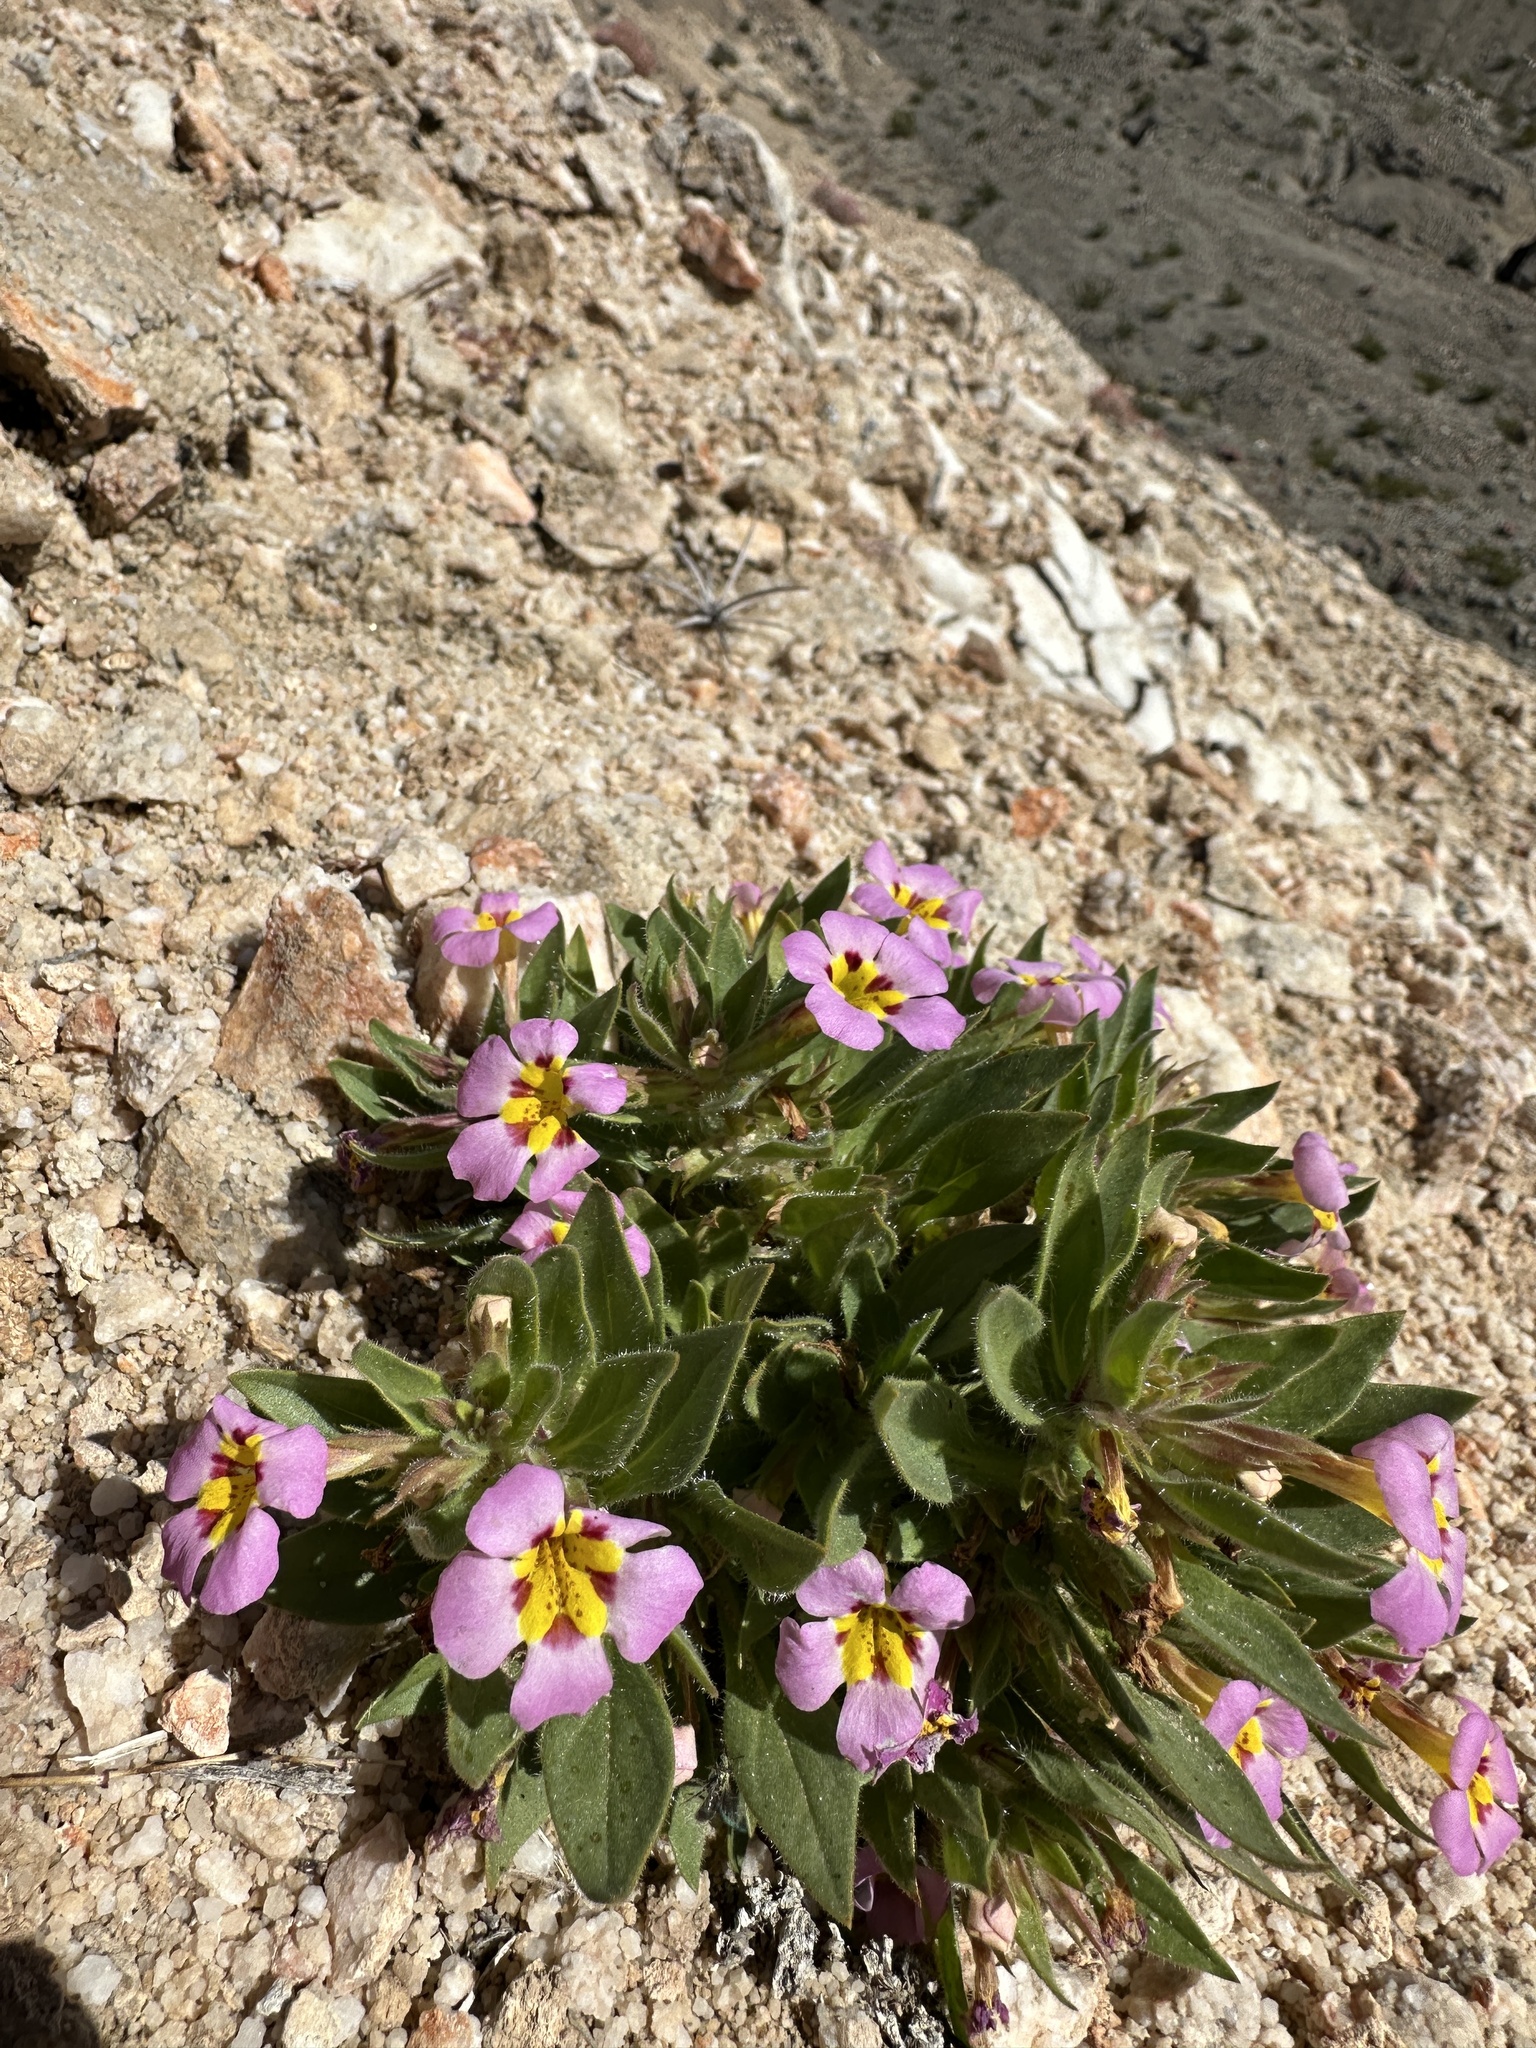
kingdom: Plantae
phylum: Tracheophyta
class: Magnoliopsida
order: Lamiales
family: Phrymaceae
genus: Diplacus
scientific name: Diplacus rupicola
